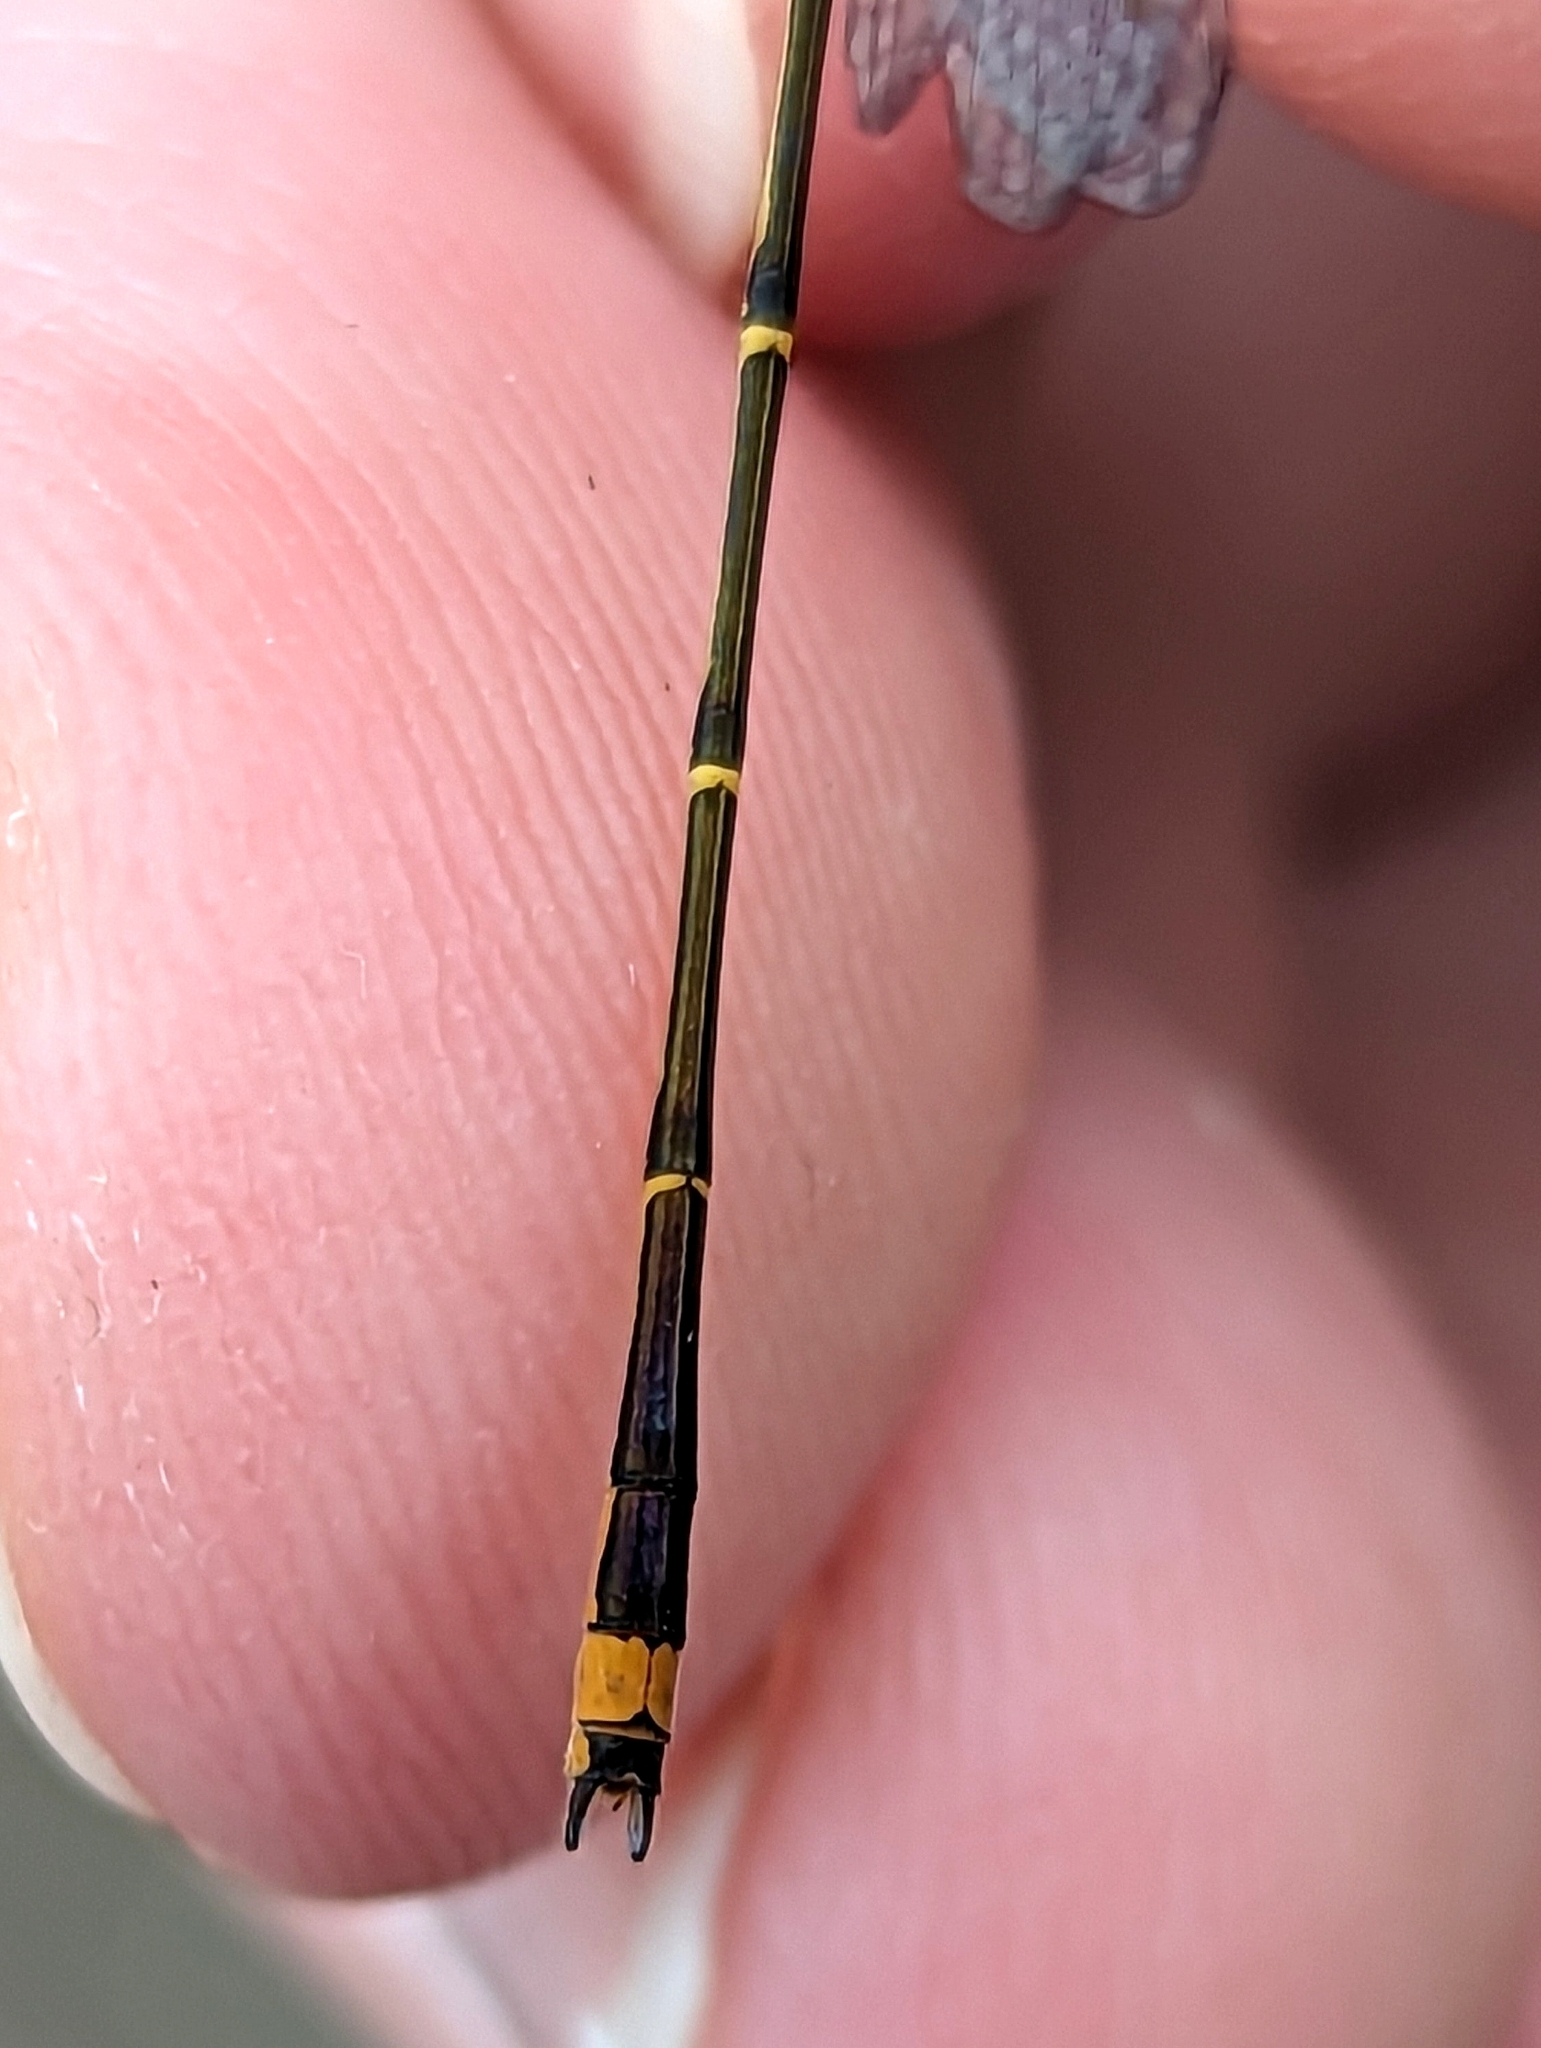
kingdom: Animalia
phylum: Arthropoda
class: Insecta
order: Odonata
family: Coenagrionidae
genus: Enallagma
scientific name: Enallagma signatum
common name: Orange bluet
